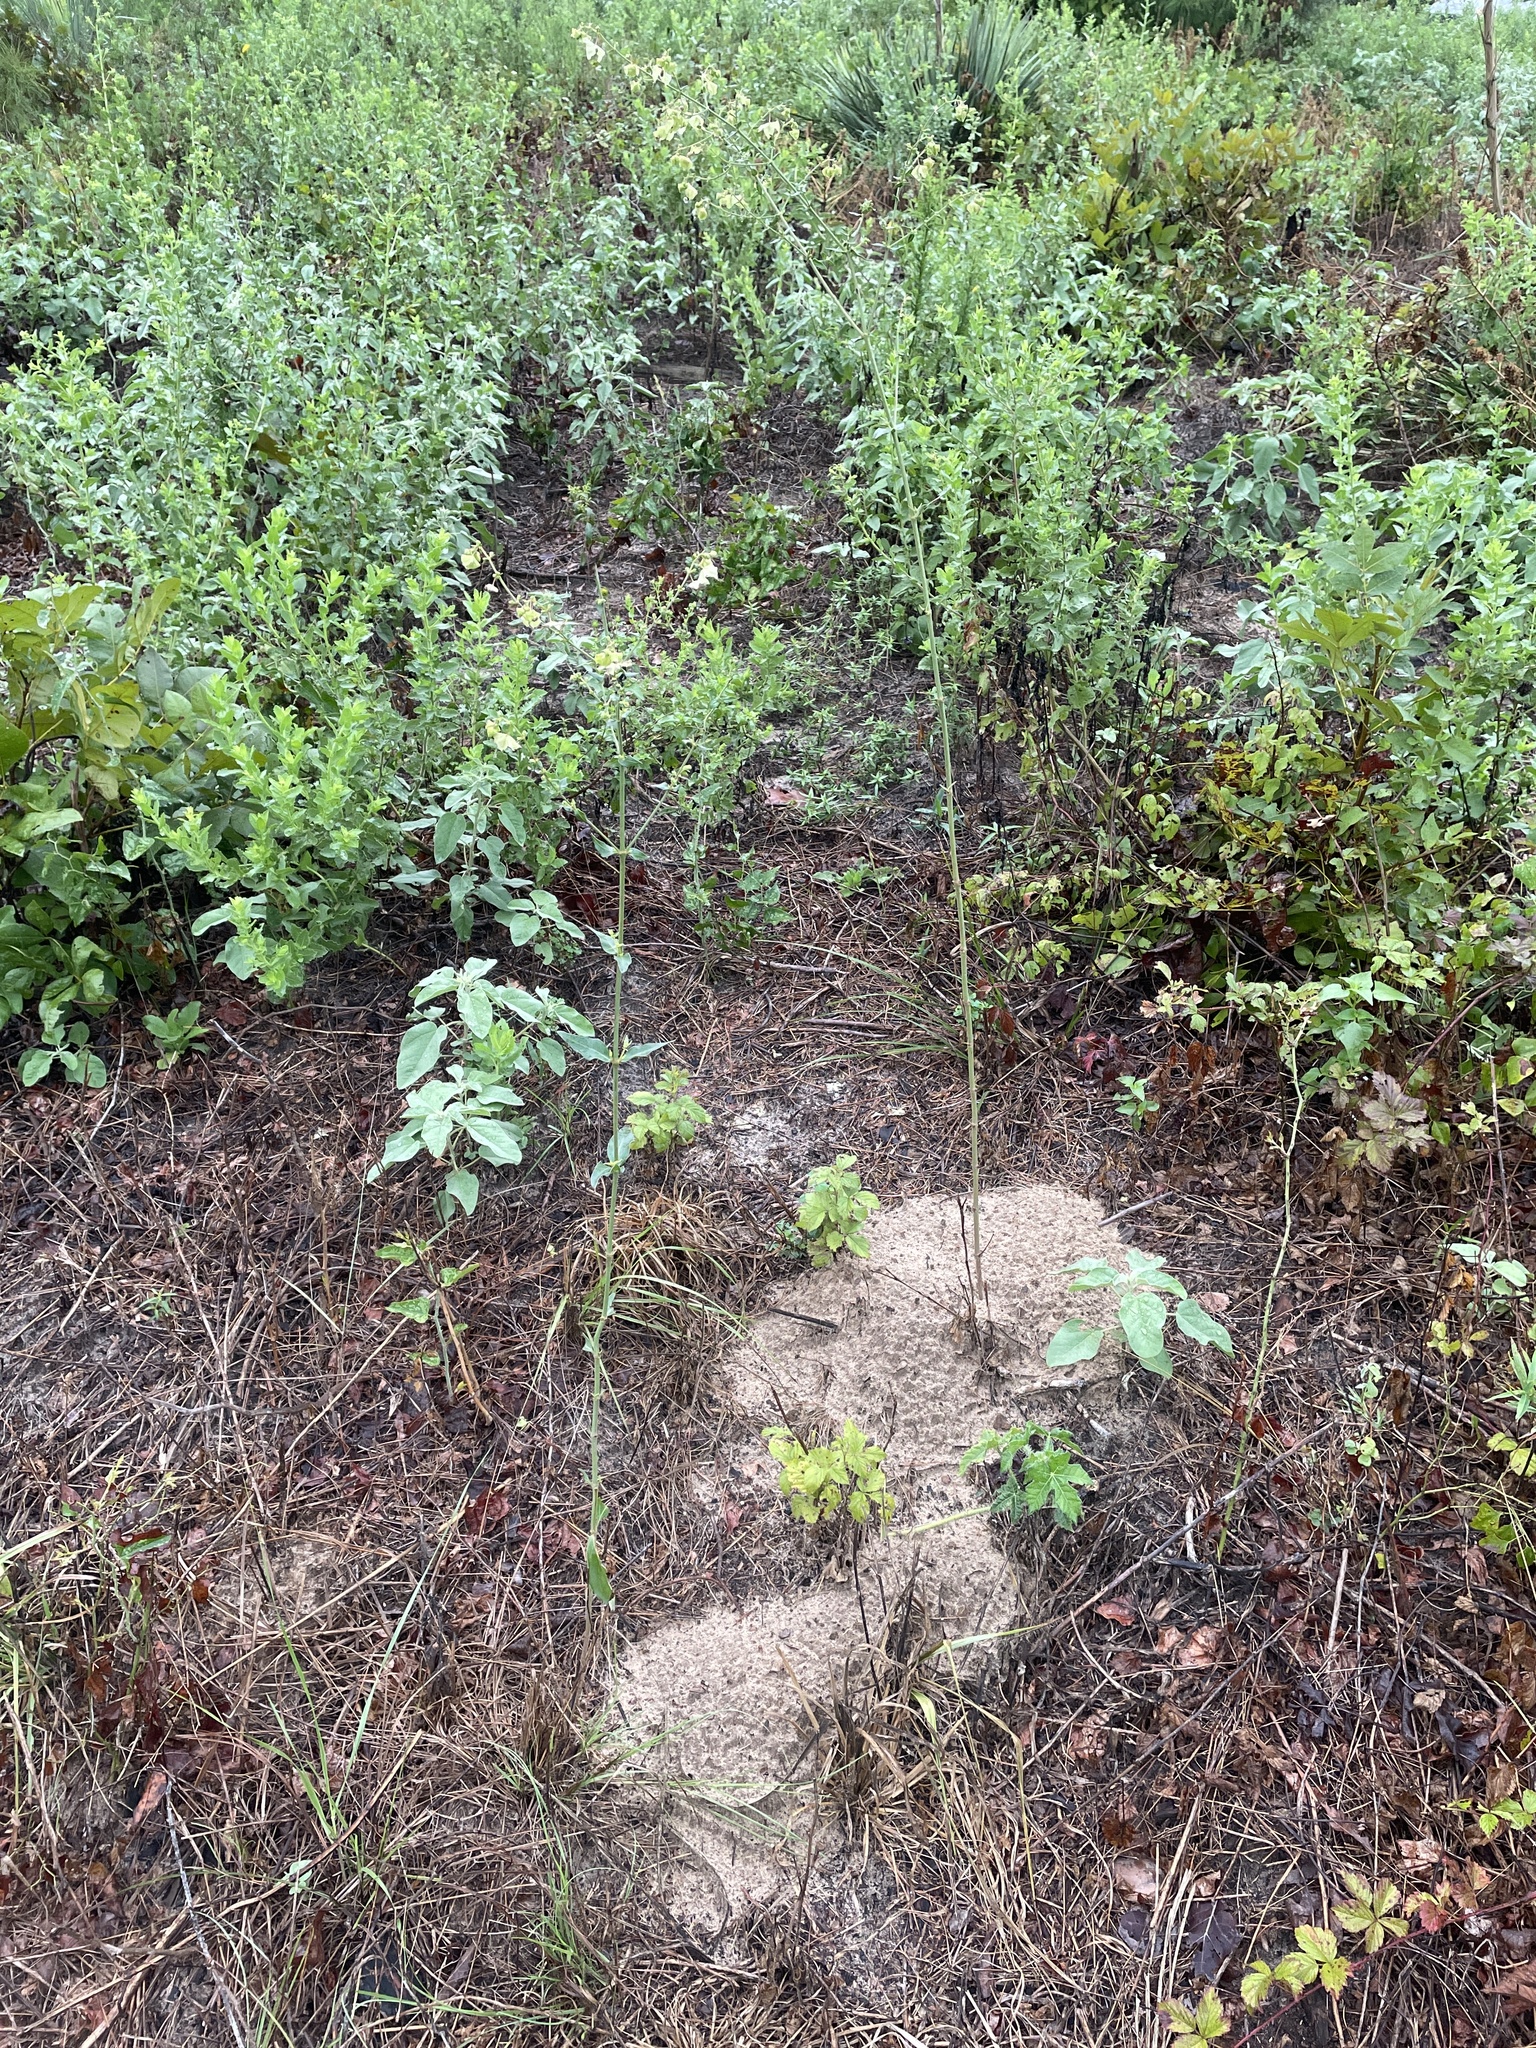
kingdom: Plantae
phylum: Tracheophyta
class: Magnoliopsida
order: Caryophyllales
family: Nyctaginaceae
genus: Mirabilis
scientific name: Mirabilis albida
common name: Hairy four-o'clock
